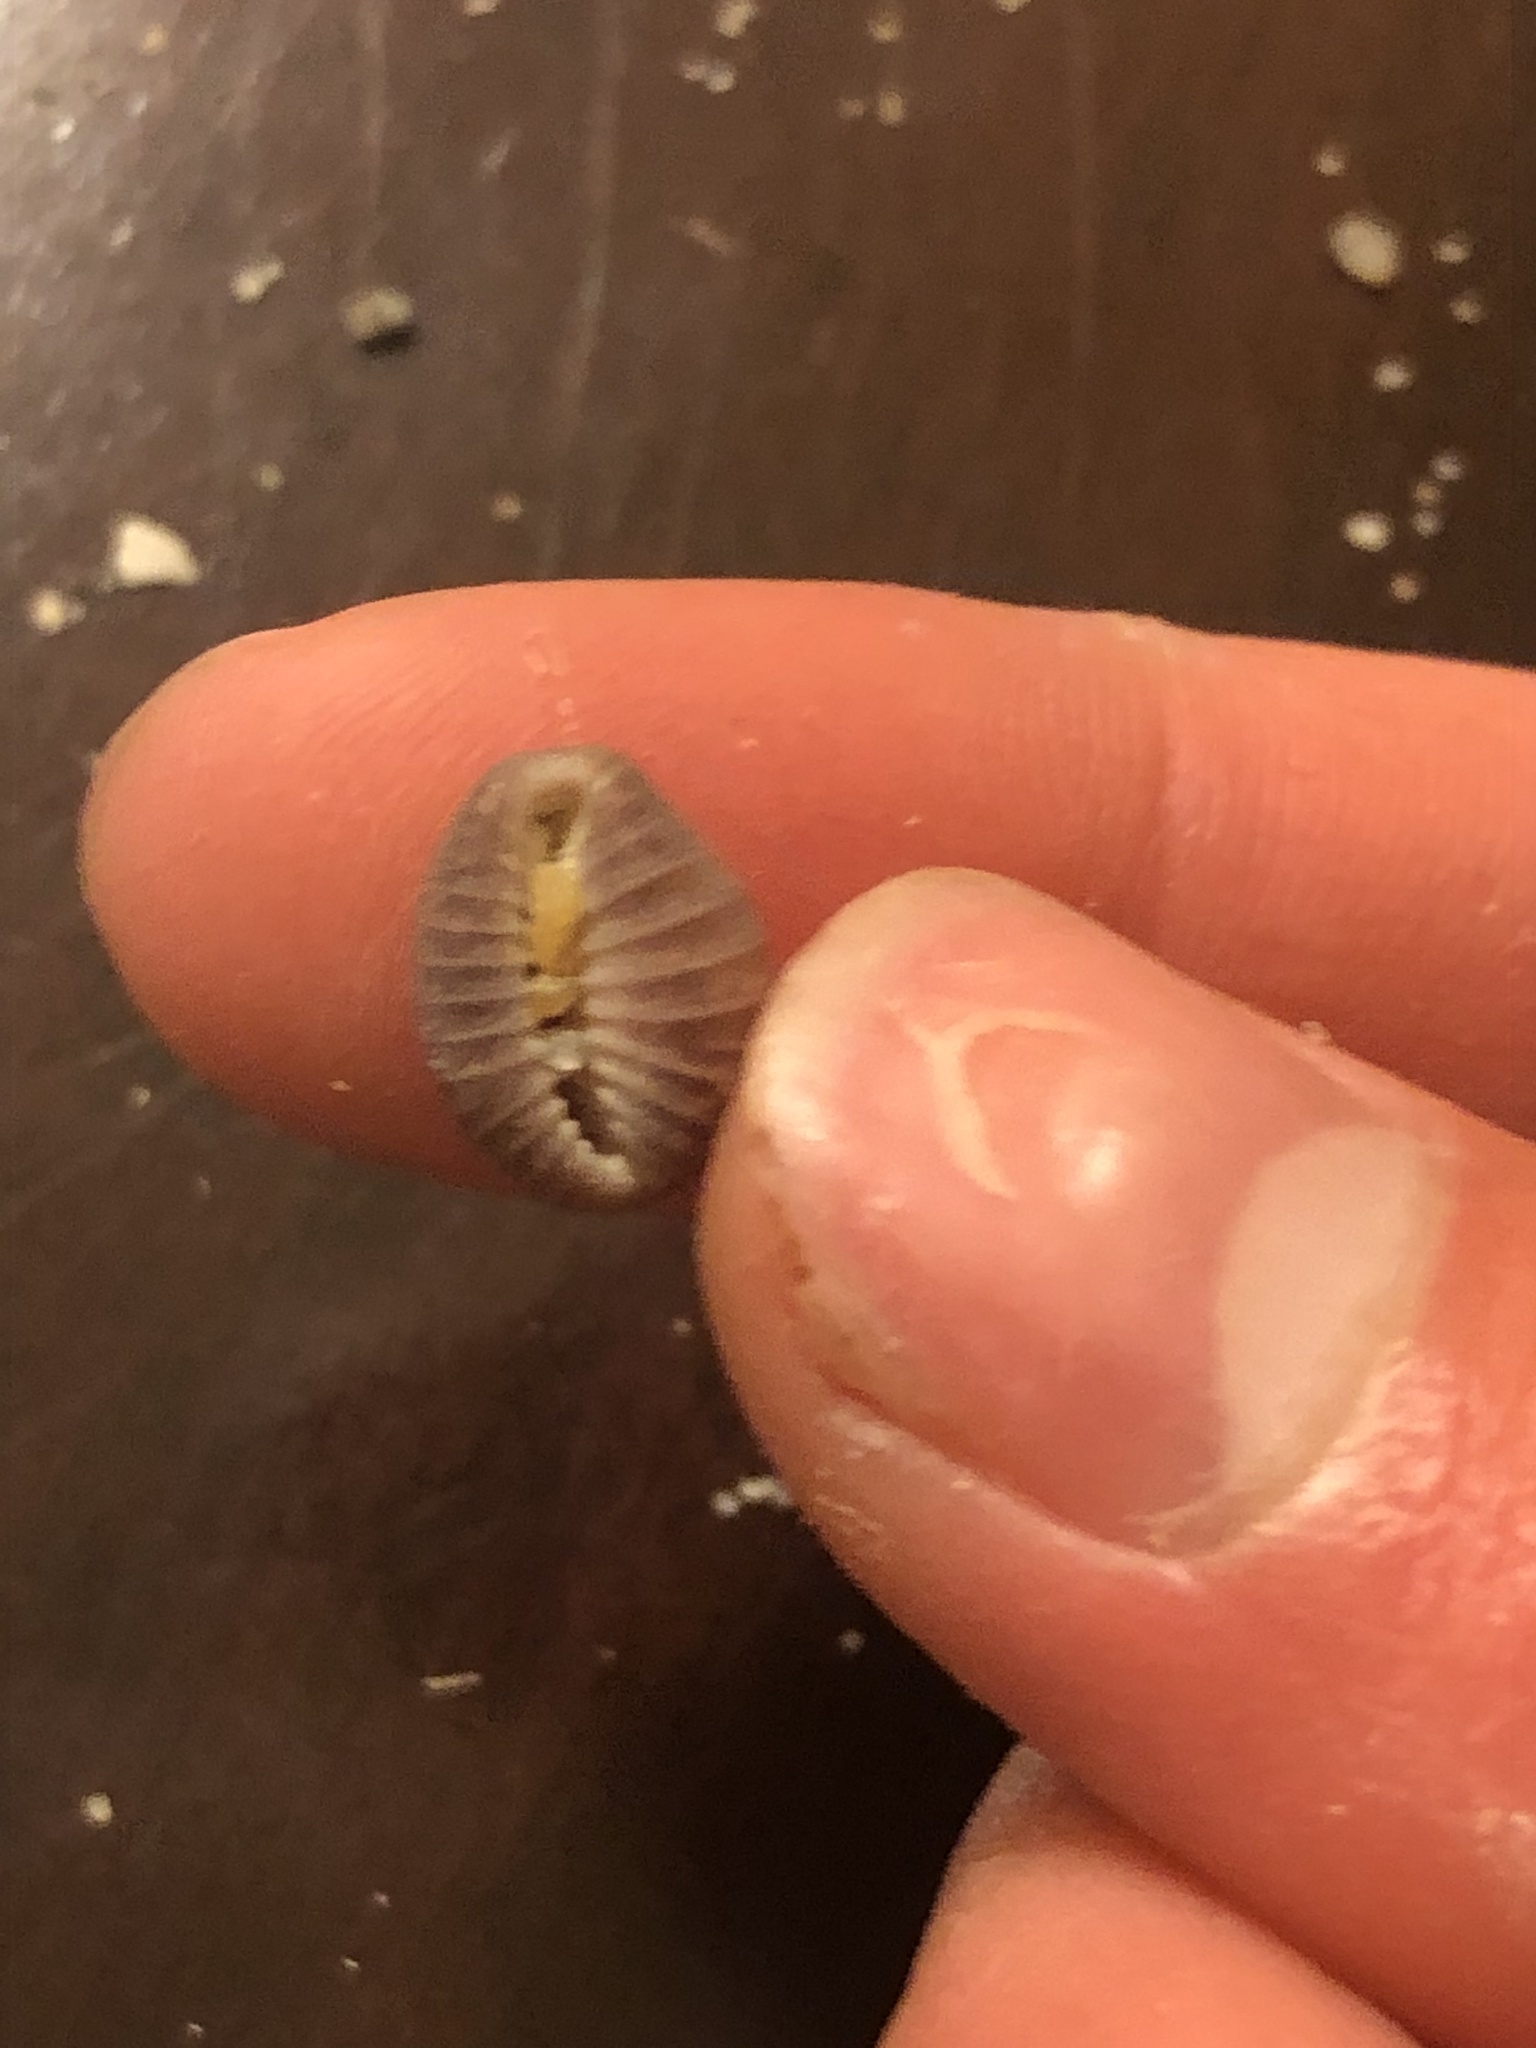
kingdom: Animalia
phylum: Mollusca
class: Gastropoda
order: Littorinimorpha
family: Triviidae
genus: Pseudopusula
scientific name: Pseudopusula californiana
